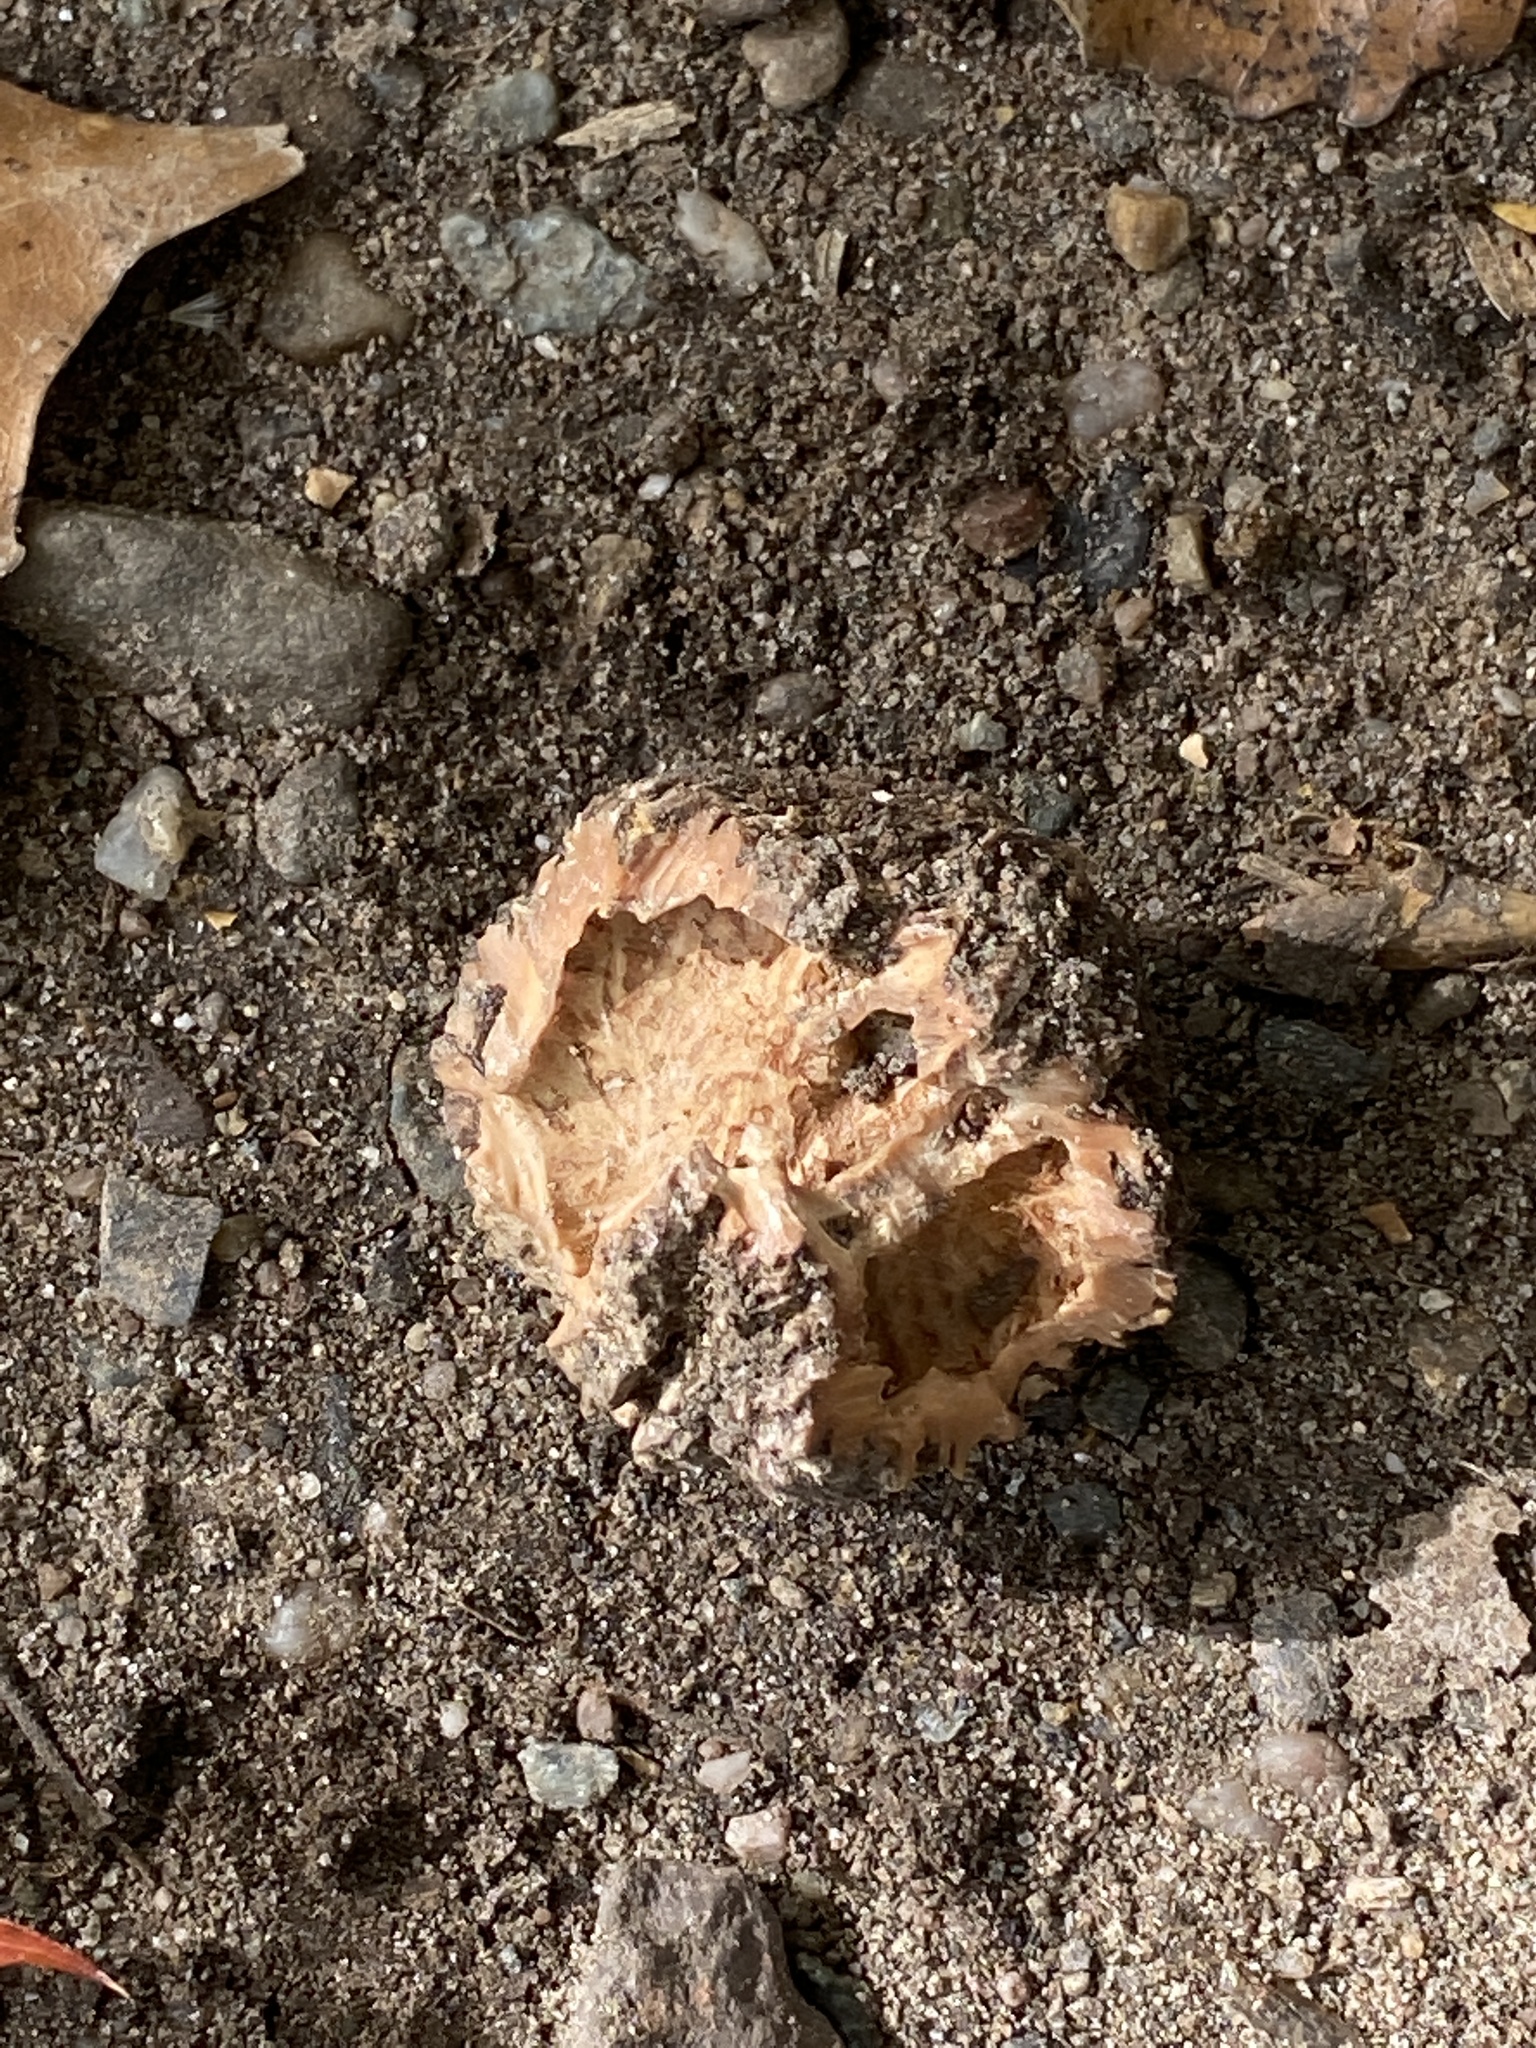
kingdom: Plantae
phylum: Tracheophyta
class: Magnoliopsida
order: Fagales
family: Juglandaceae
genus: Juglans
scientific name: Juglans nigra
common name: Black walnut
